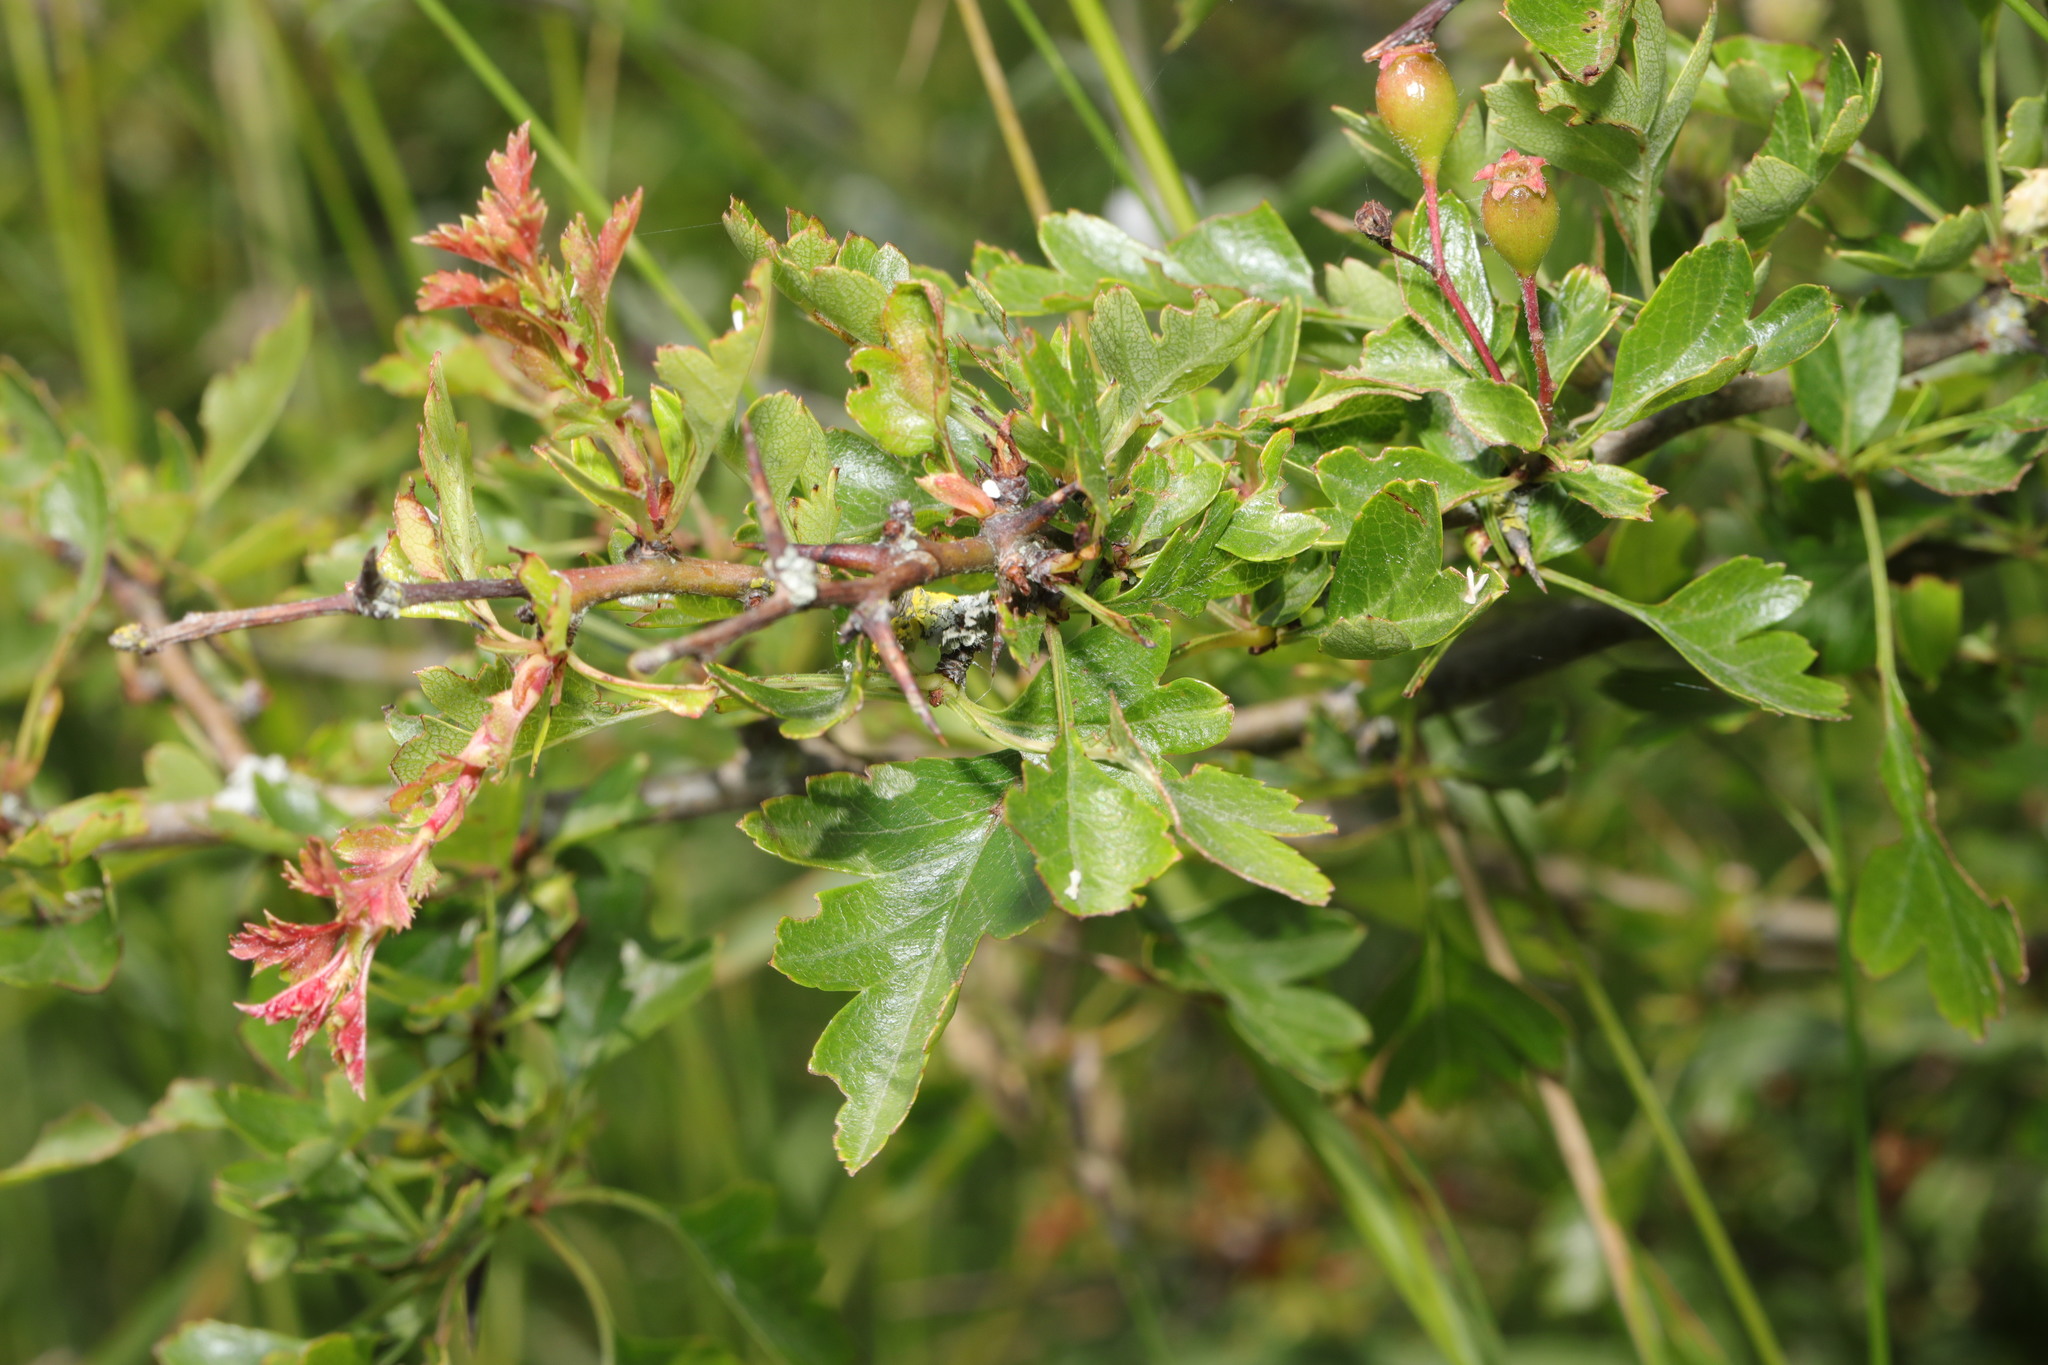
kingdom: Plantae
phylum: Tracheophyta
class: Magnoliopsida
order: Rosales
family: Rosaceae
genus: Crataegus
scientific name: Crataegus monogyna
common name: Hawthorn
